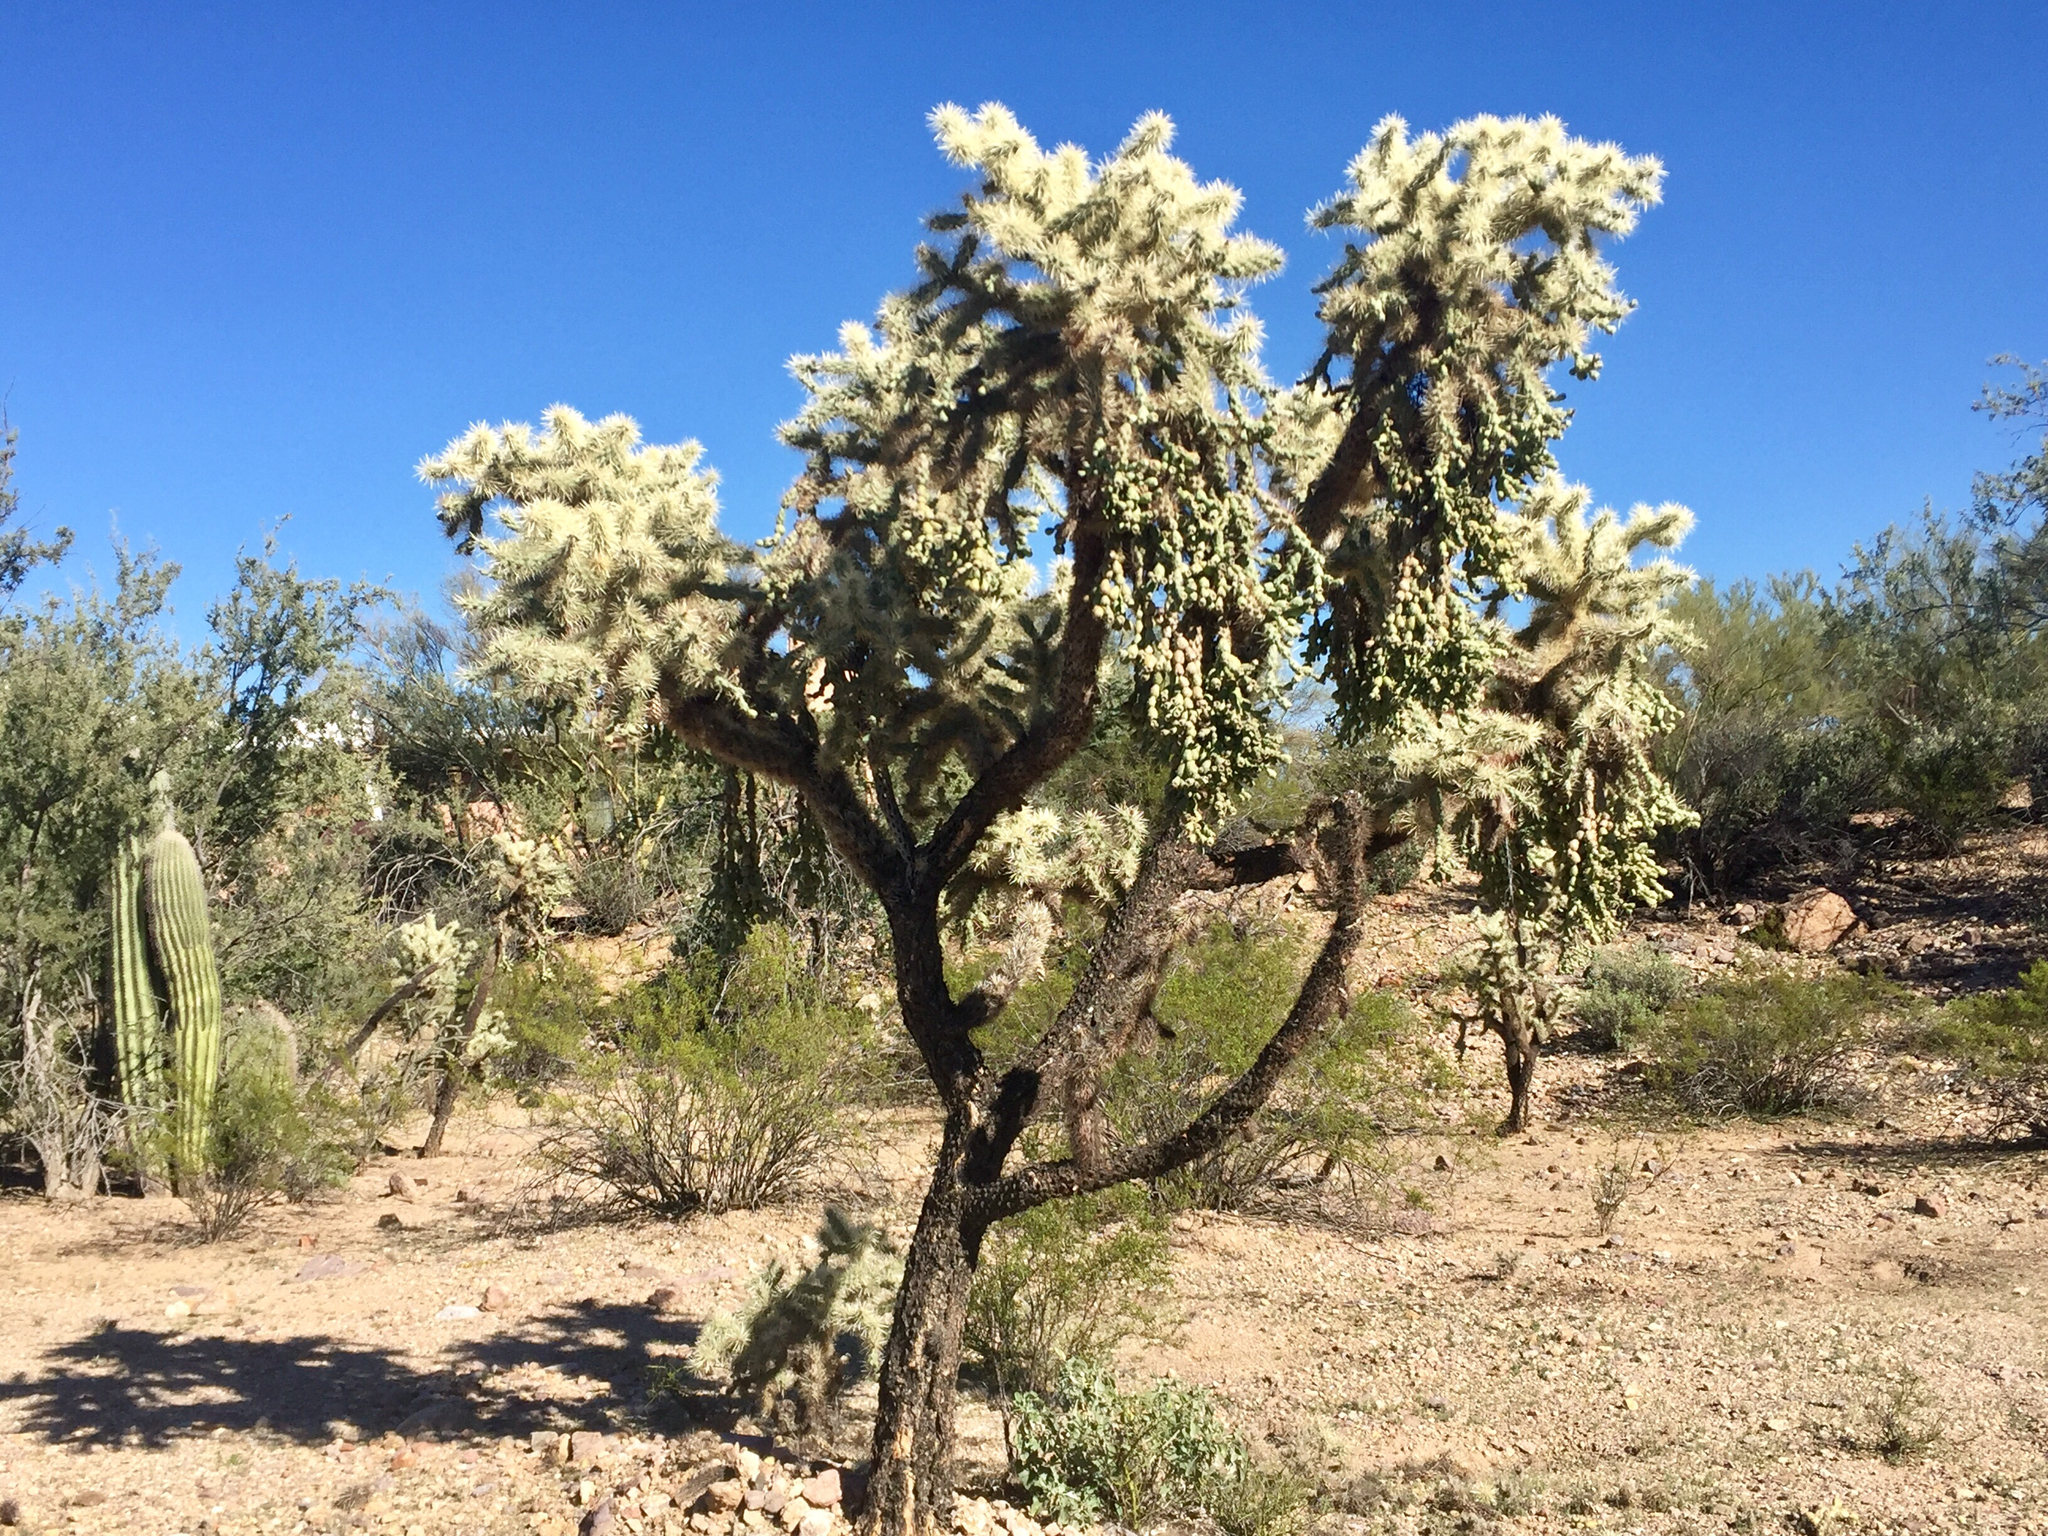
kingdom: Plantae
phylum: Tracheophyta
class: Magnoliopsida
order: Caryophyllales
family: Cactaceae
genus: Cylindropuntia
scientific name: Cylindropuntia fulgida
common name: Jumping cholla
